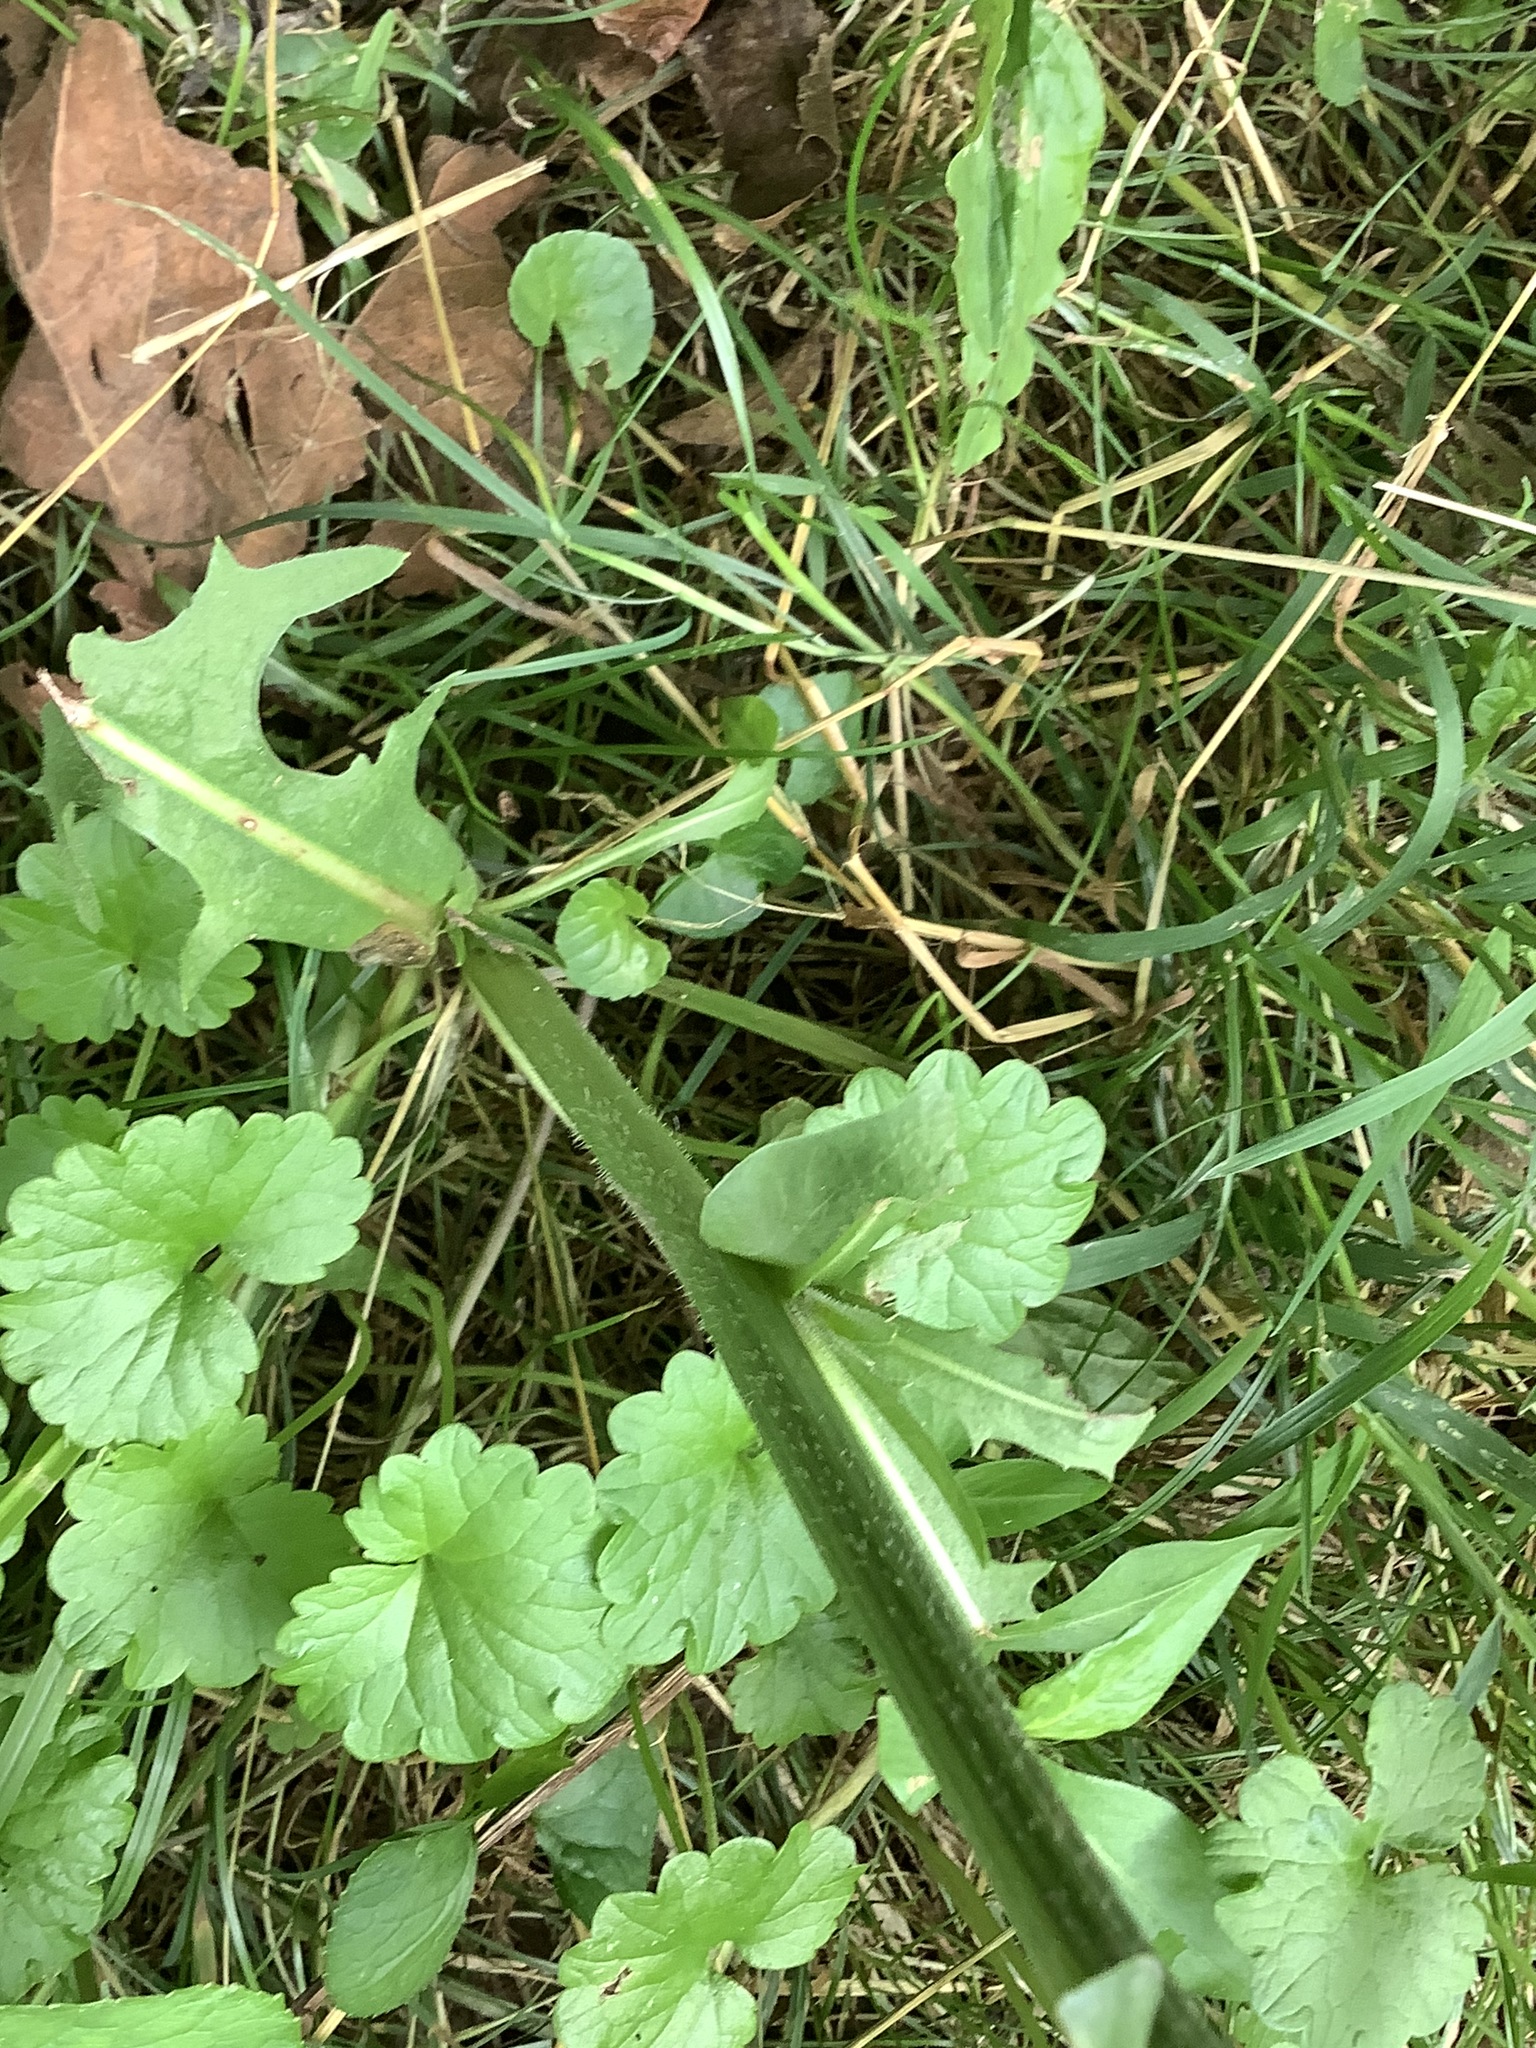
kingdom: Plantae
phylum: Tracheophyta
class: Magnoliopsida
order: Asterales
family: Asteraceae
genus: Cichorium
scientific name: Cichorium intybus
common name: Chicory
